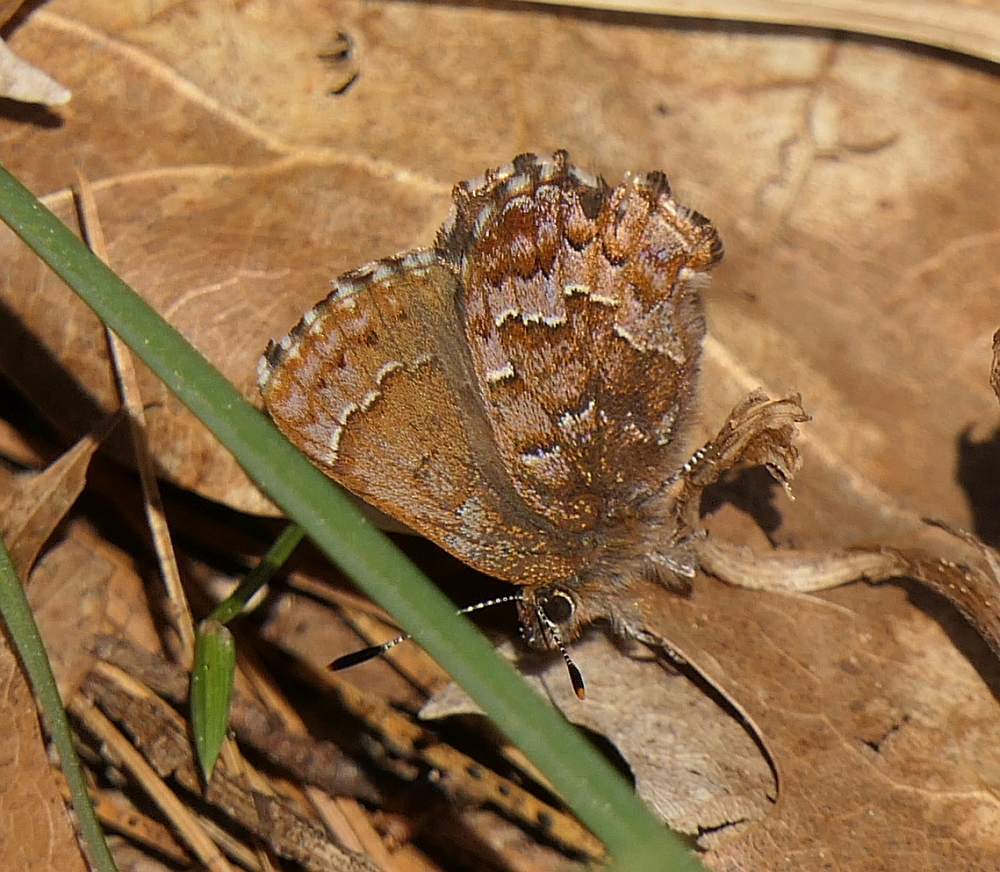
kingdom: Animalia
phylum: Arthropoda
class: Insecta
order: Lepidoptera
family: Lycaenidae
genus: Incisalia
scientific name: Incisalia niphon
